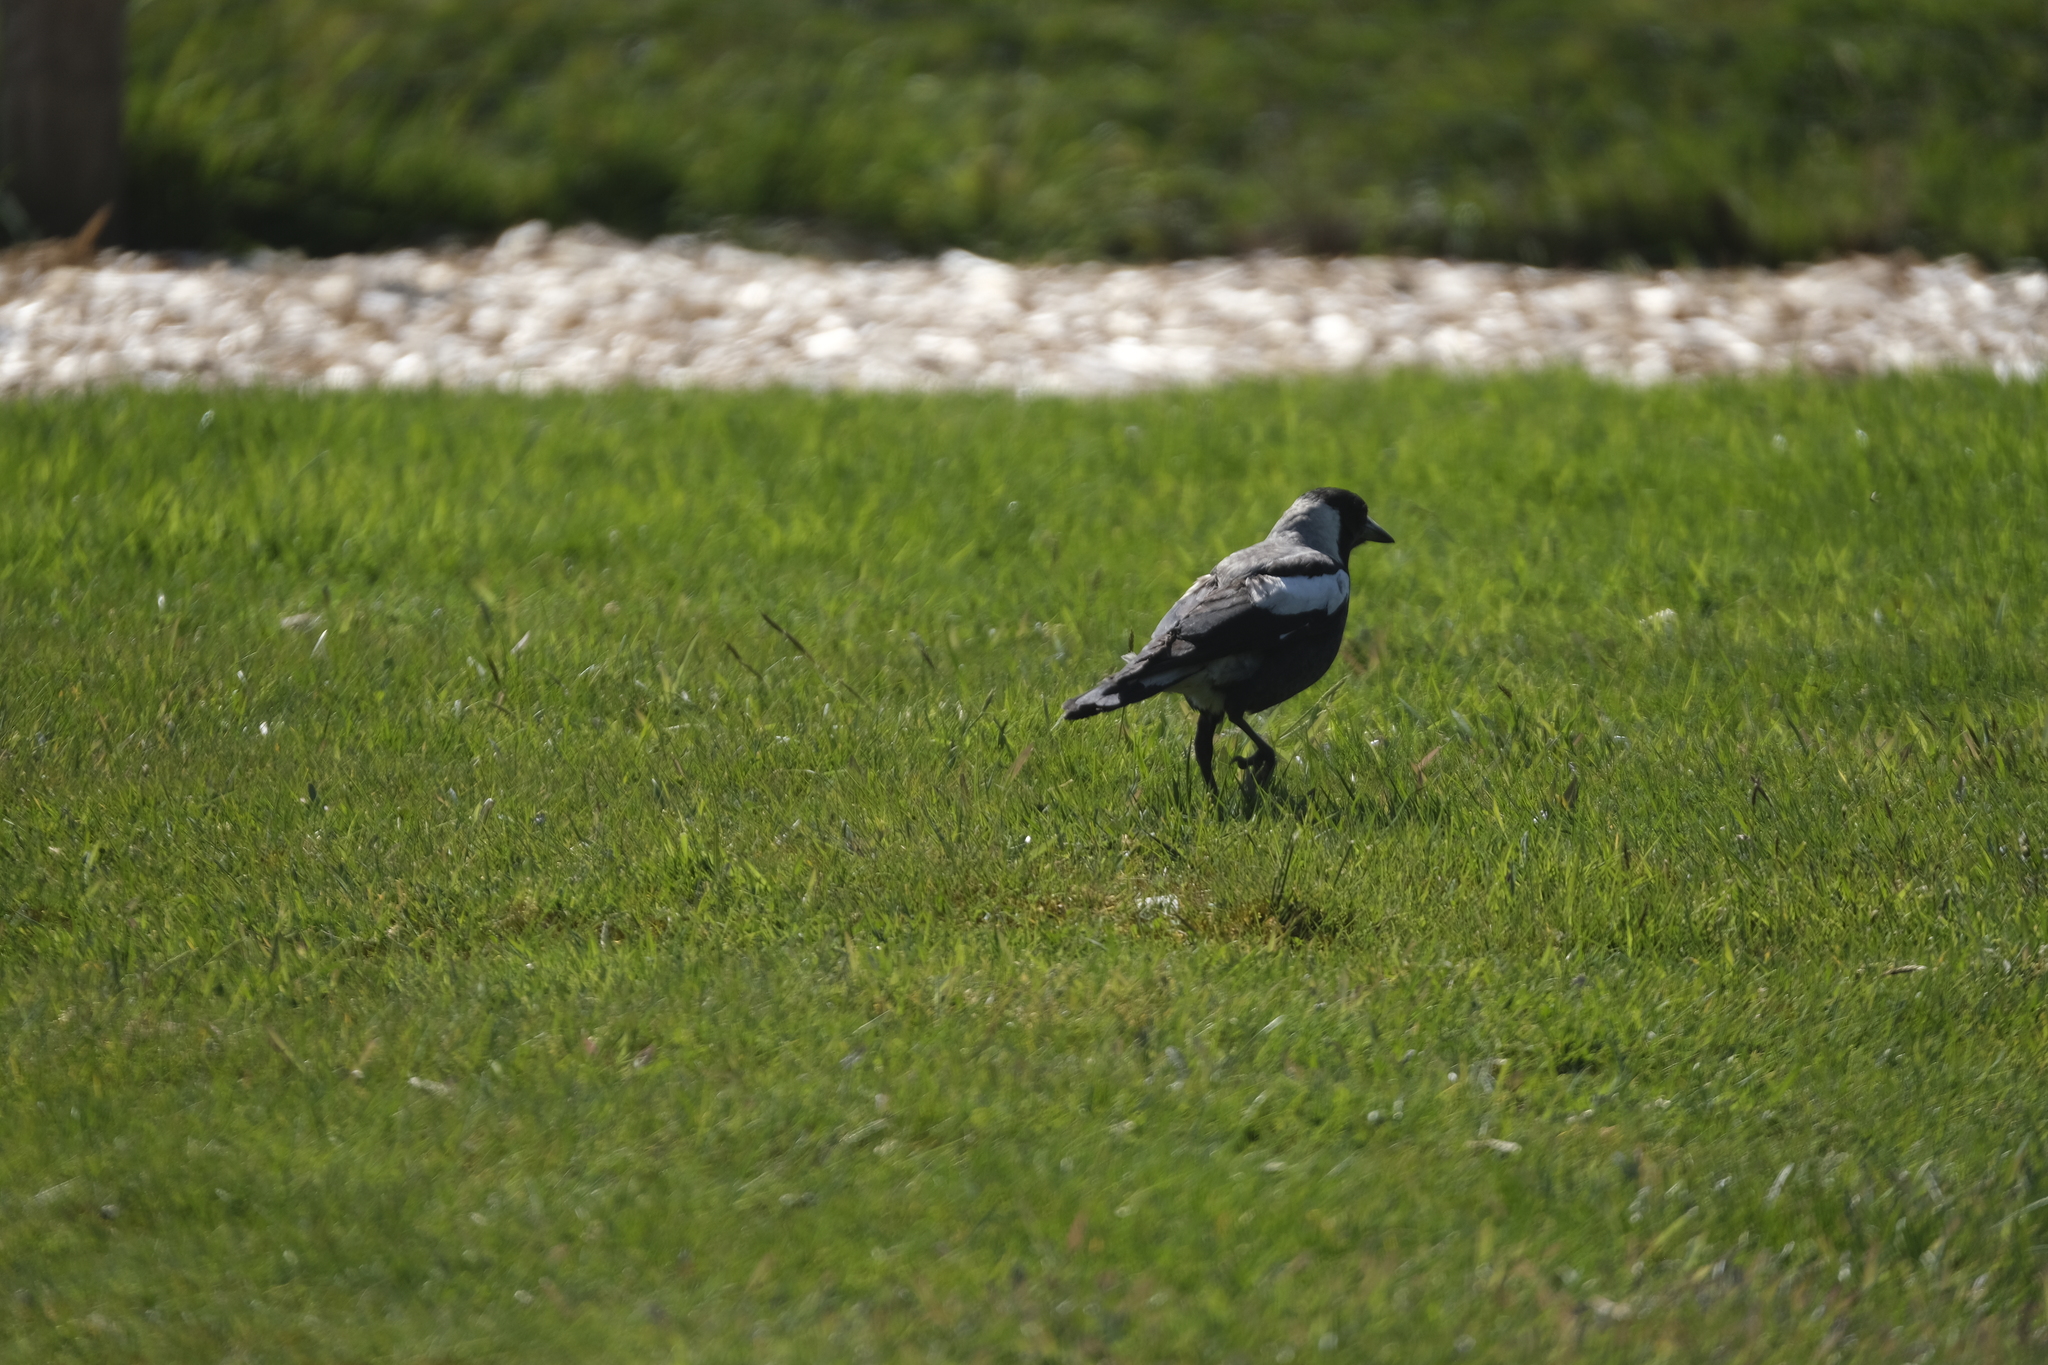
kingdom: Animalia
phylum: Chordata
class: Aves
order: Passeriformes
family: Cracticidae
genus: Gymnorhina
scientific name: Gymnorhina tibicen
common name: Australian magpie
